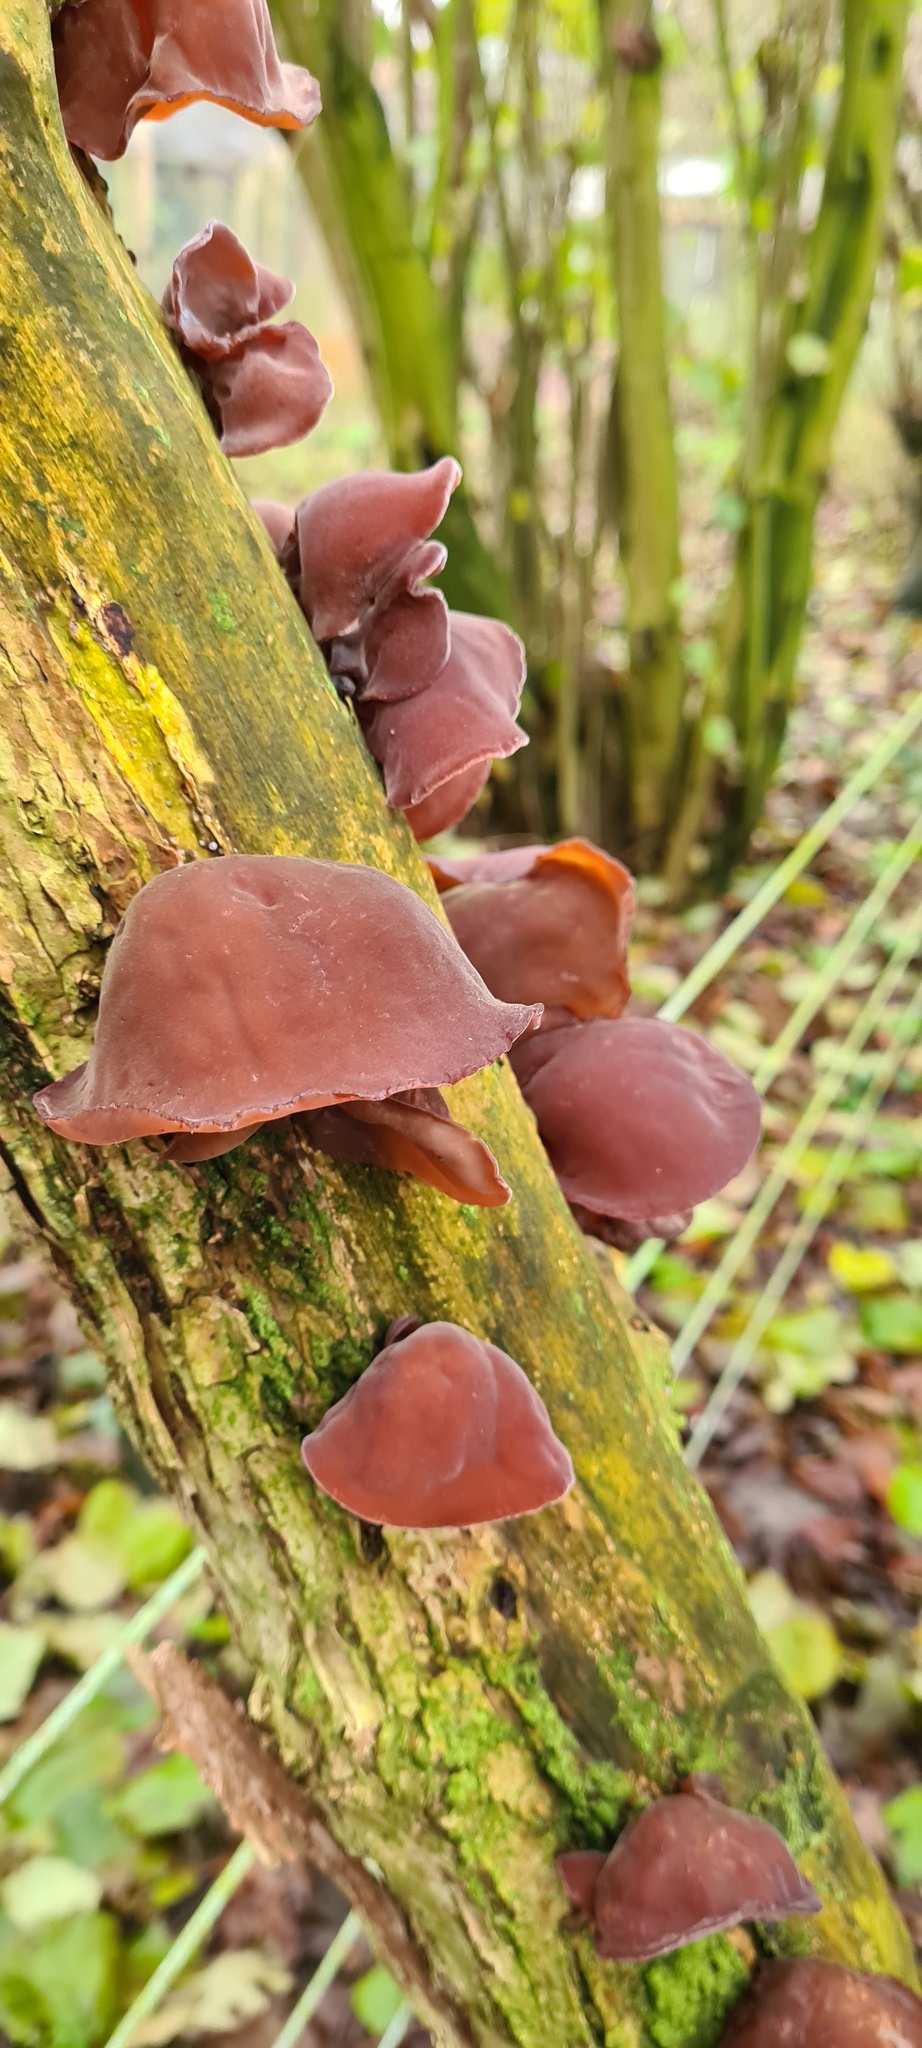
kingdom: Fungi
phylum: Basidiomycota
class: Agaricomycetes
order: Auriculariales
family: Auriculariaceae
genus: Auricularia
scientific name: Auricularia auricula-judae
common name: Jelly ear
